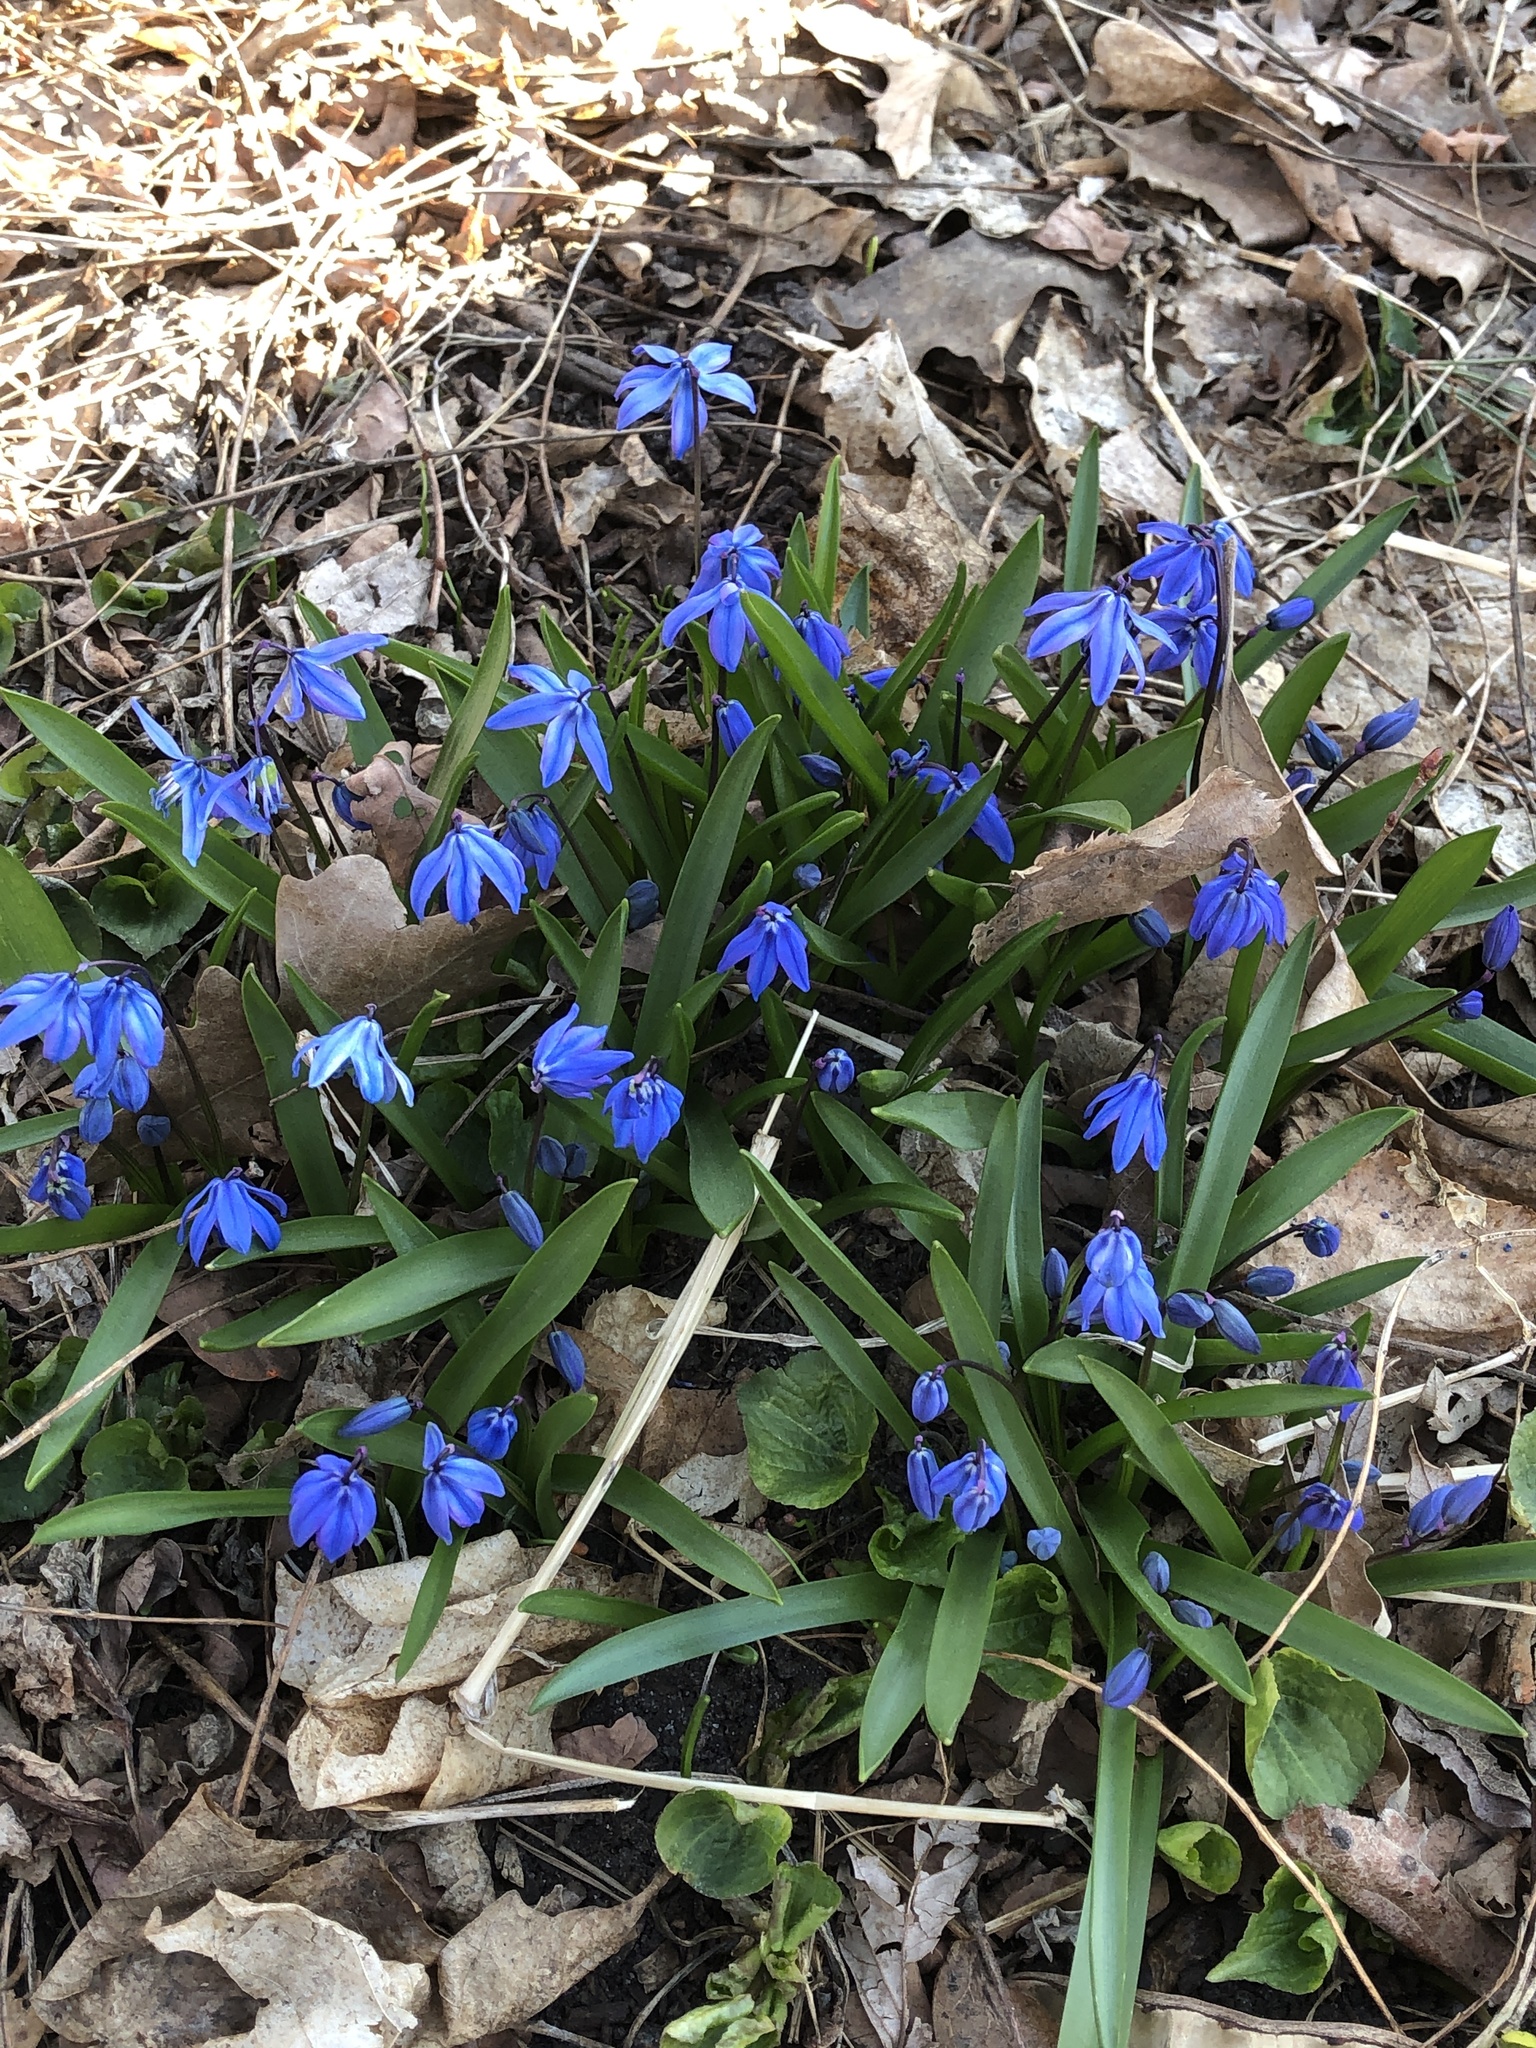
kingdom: Plantae
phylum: Tracheophyta
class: Liliopsida
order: Asparagales
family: Asparagaceae
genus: Scilla
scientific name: Scilla siberica
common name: Siberian squill
